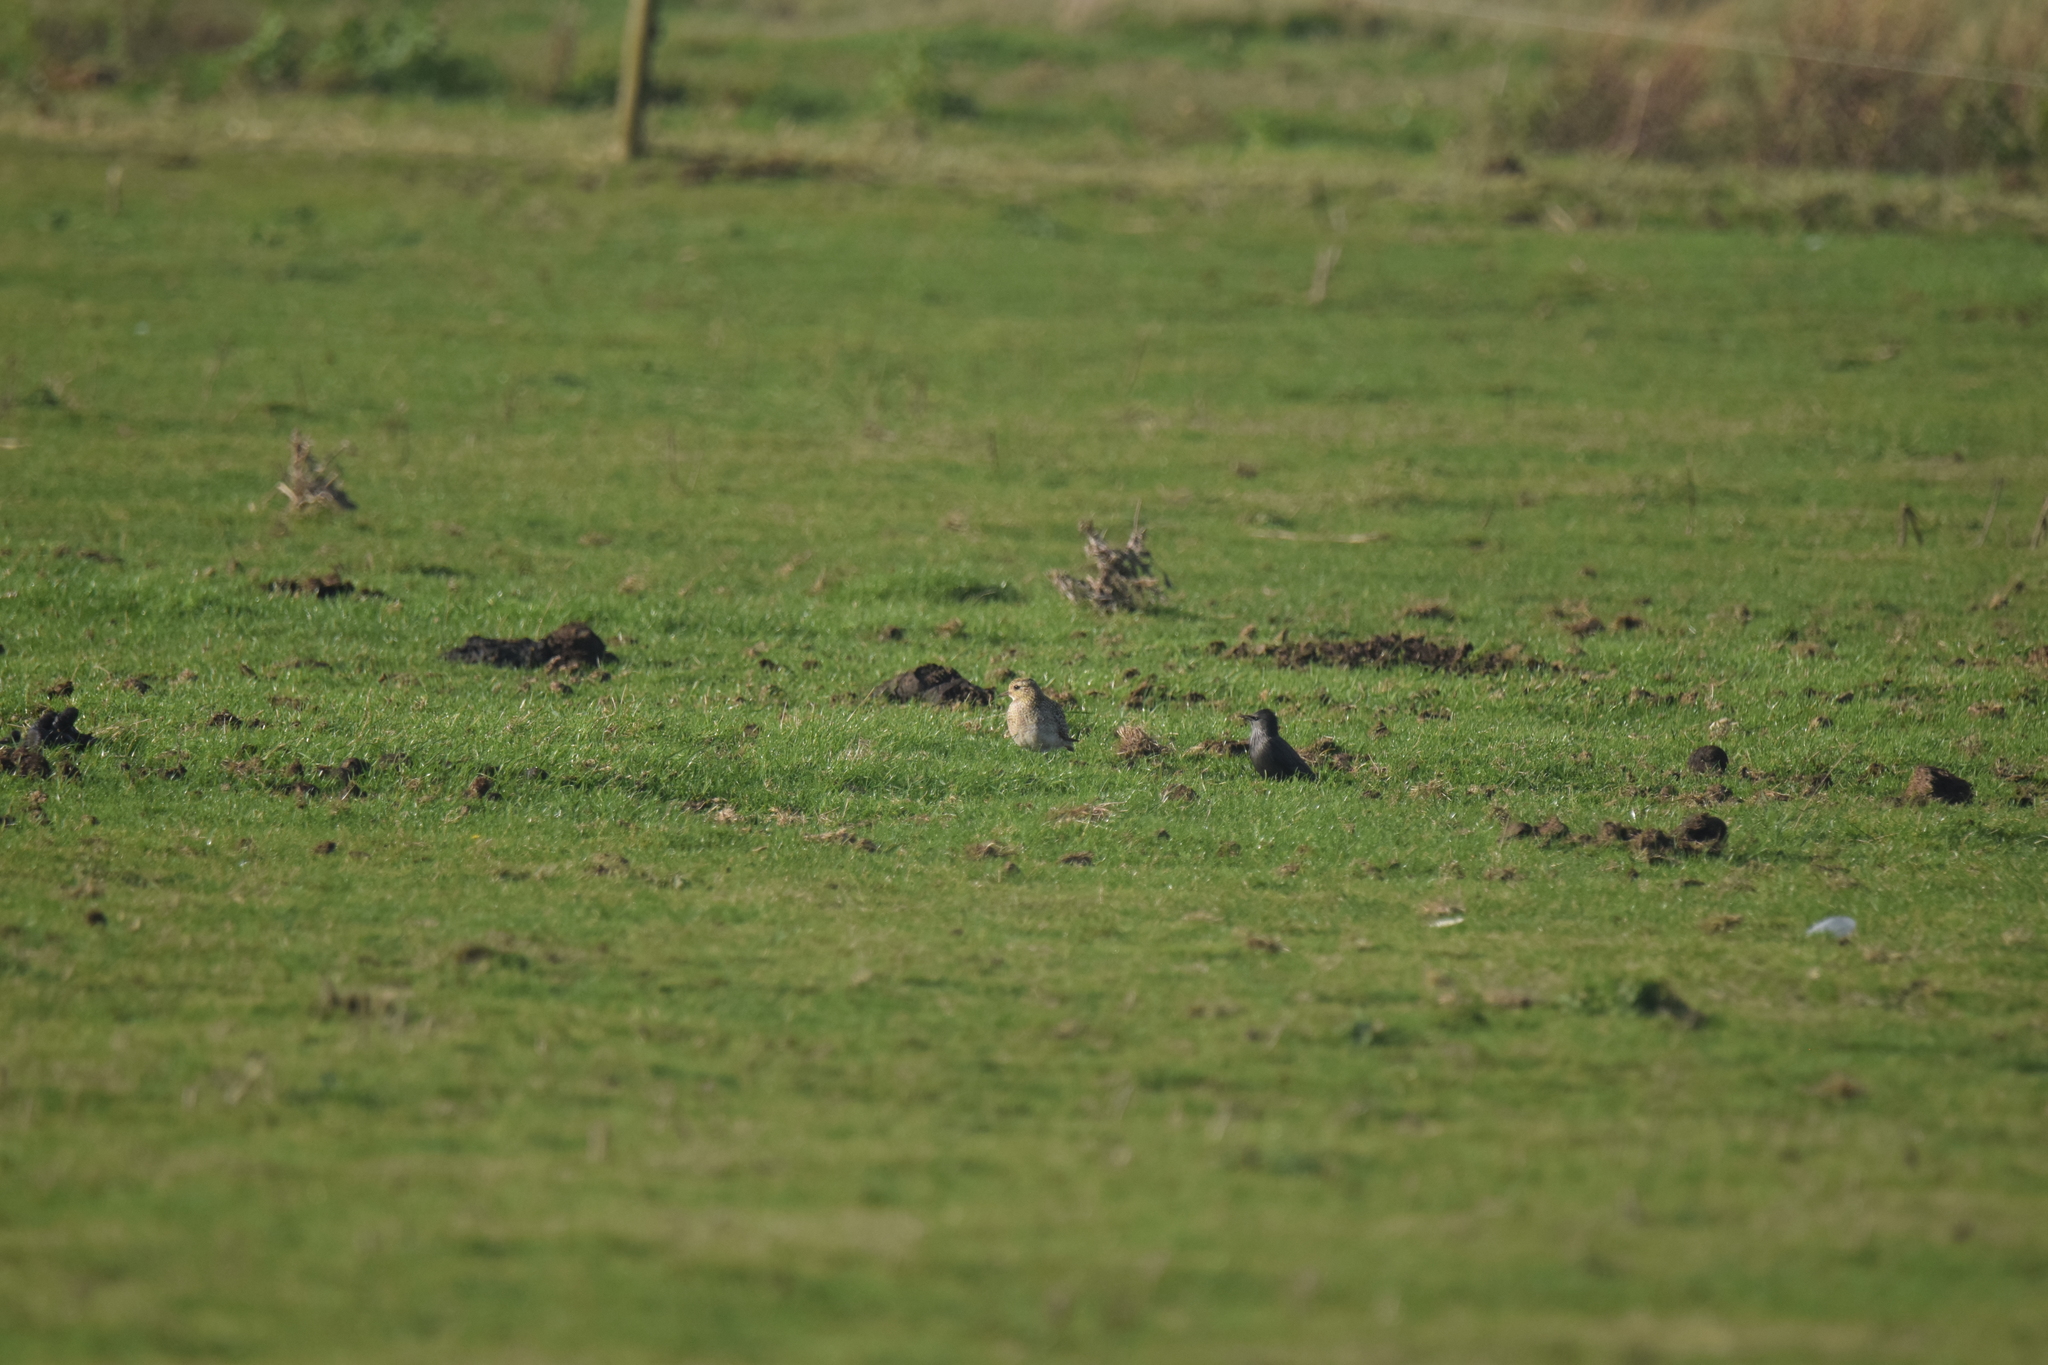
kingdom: Animalia
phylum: Chordata
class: Aves
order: Passeriformes
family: Sturnidae
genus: Sturnus
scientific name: Sturnus unicolor
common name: Spotless starling
